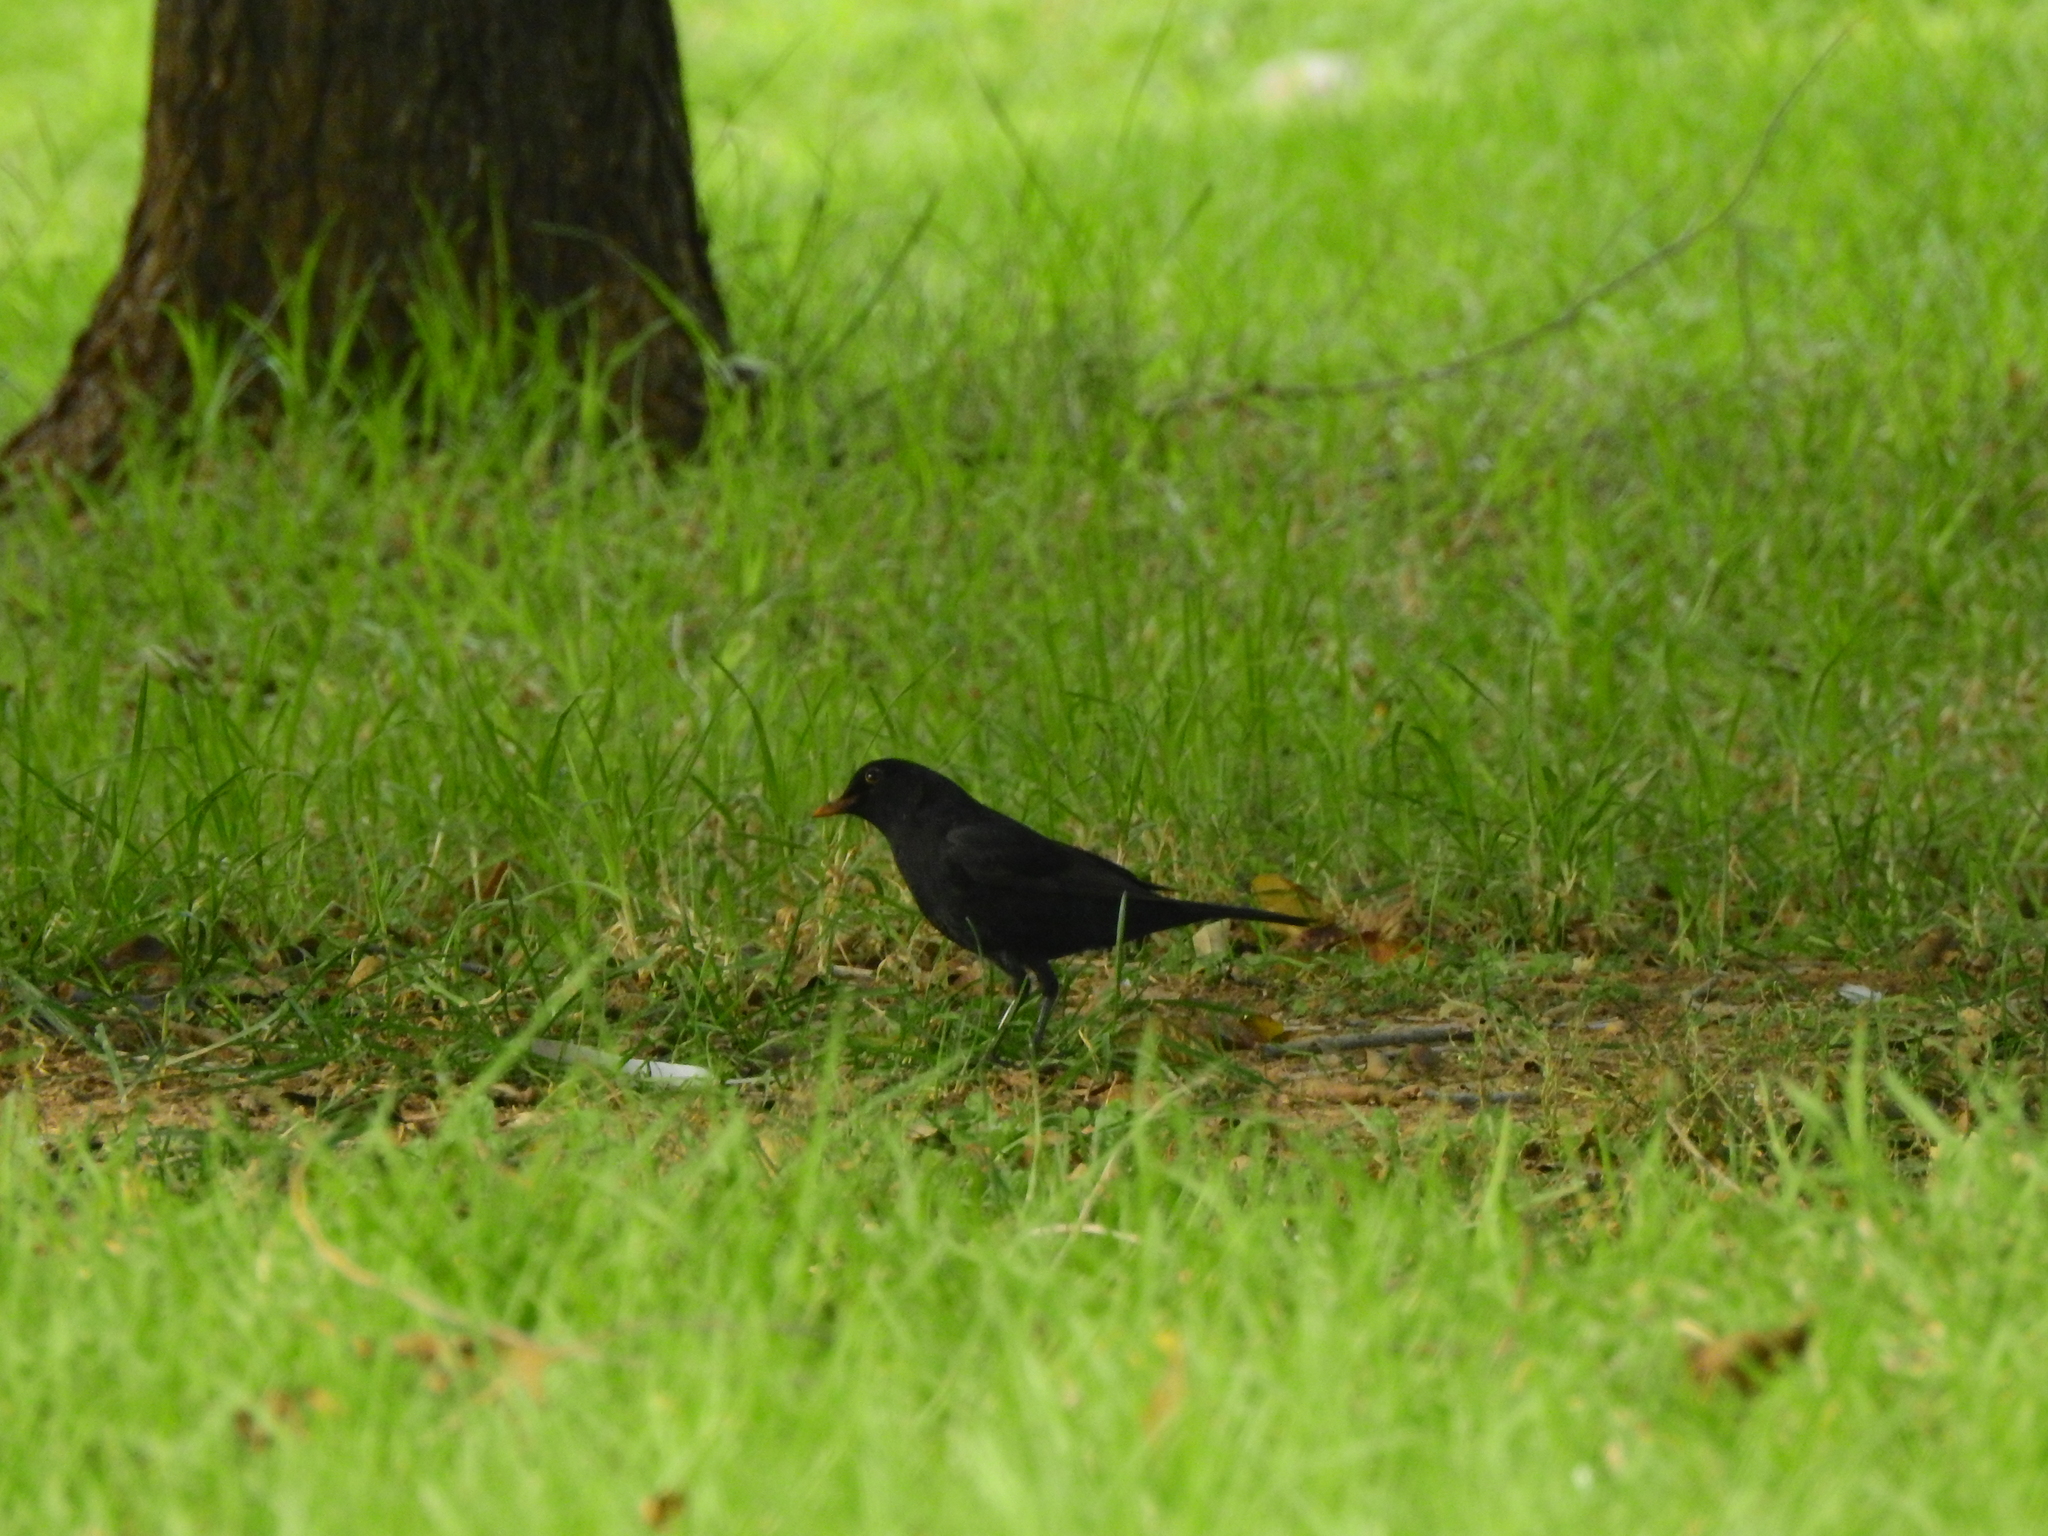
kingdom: Animalia
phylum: Chordata
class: Aves
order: Passeriformes
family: Turdidae
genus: Turdus
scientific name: Turdus merula
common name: Common blackbird
